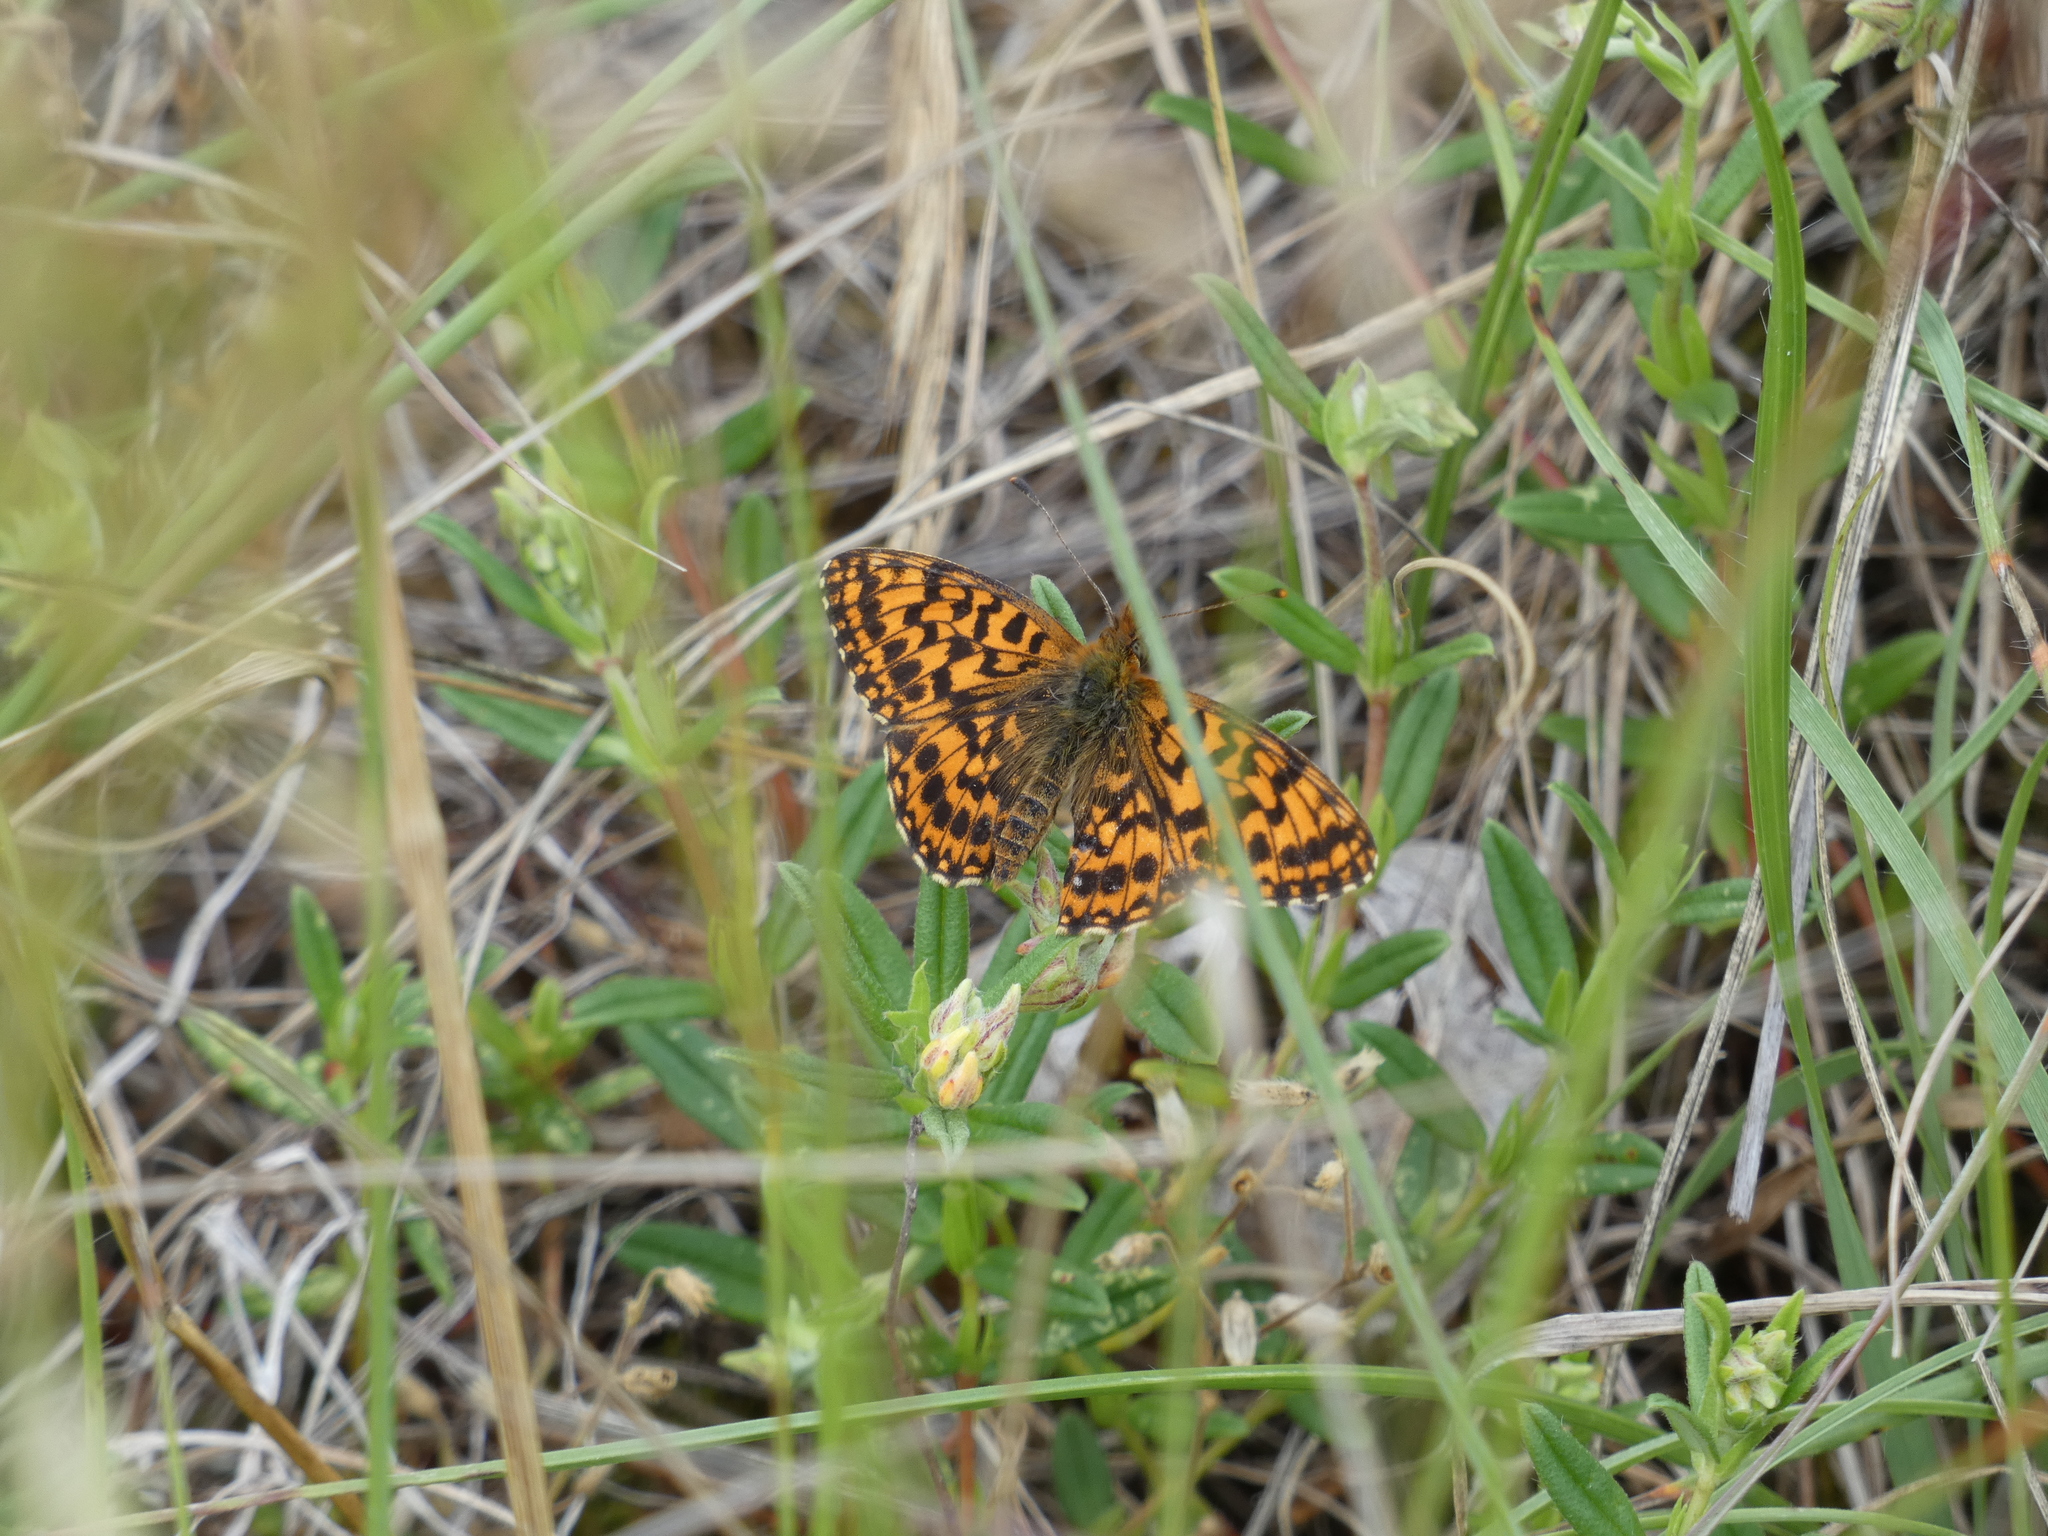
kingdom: Animalia
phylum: Arthropoda
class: Insecta
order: Lepidoptera
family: Nymphalidae
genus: Boloria
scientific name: Boloria dia
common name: Weaver's fritillary
